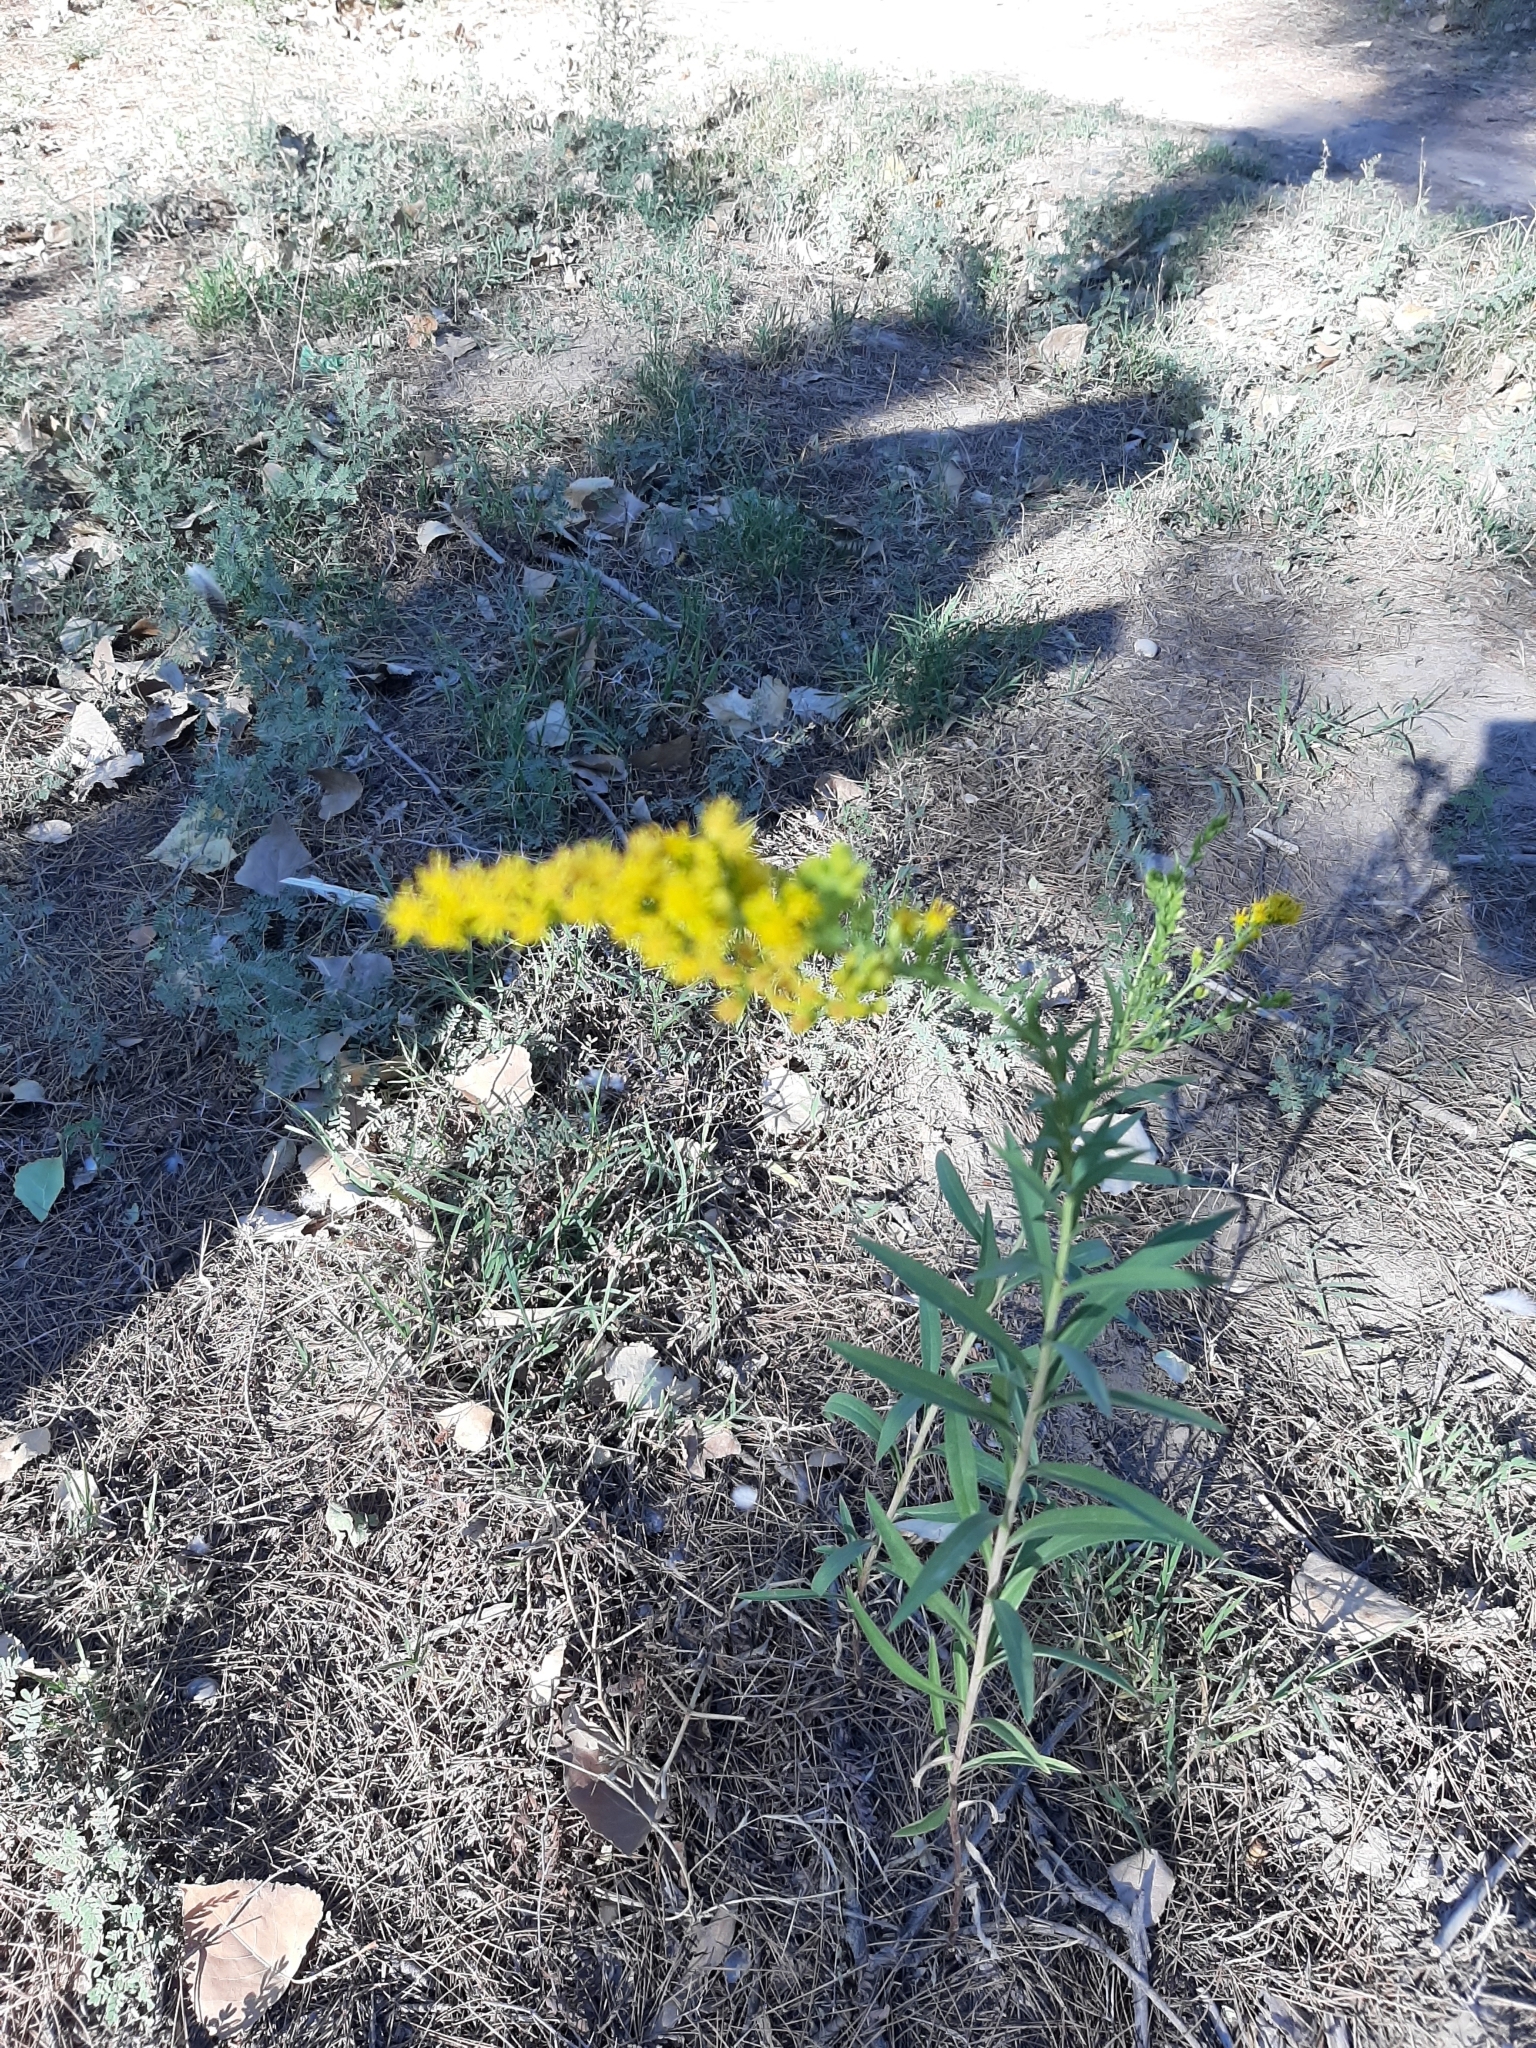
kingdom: Plantae
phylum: Tracheophyta
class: Magnoliopsida
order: Asterales
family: Asteraceae
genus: Solidago
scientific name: Solidago chilensis
